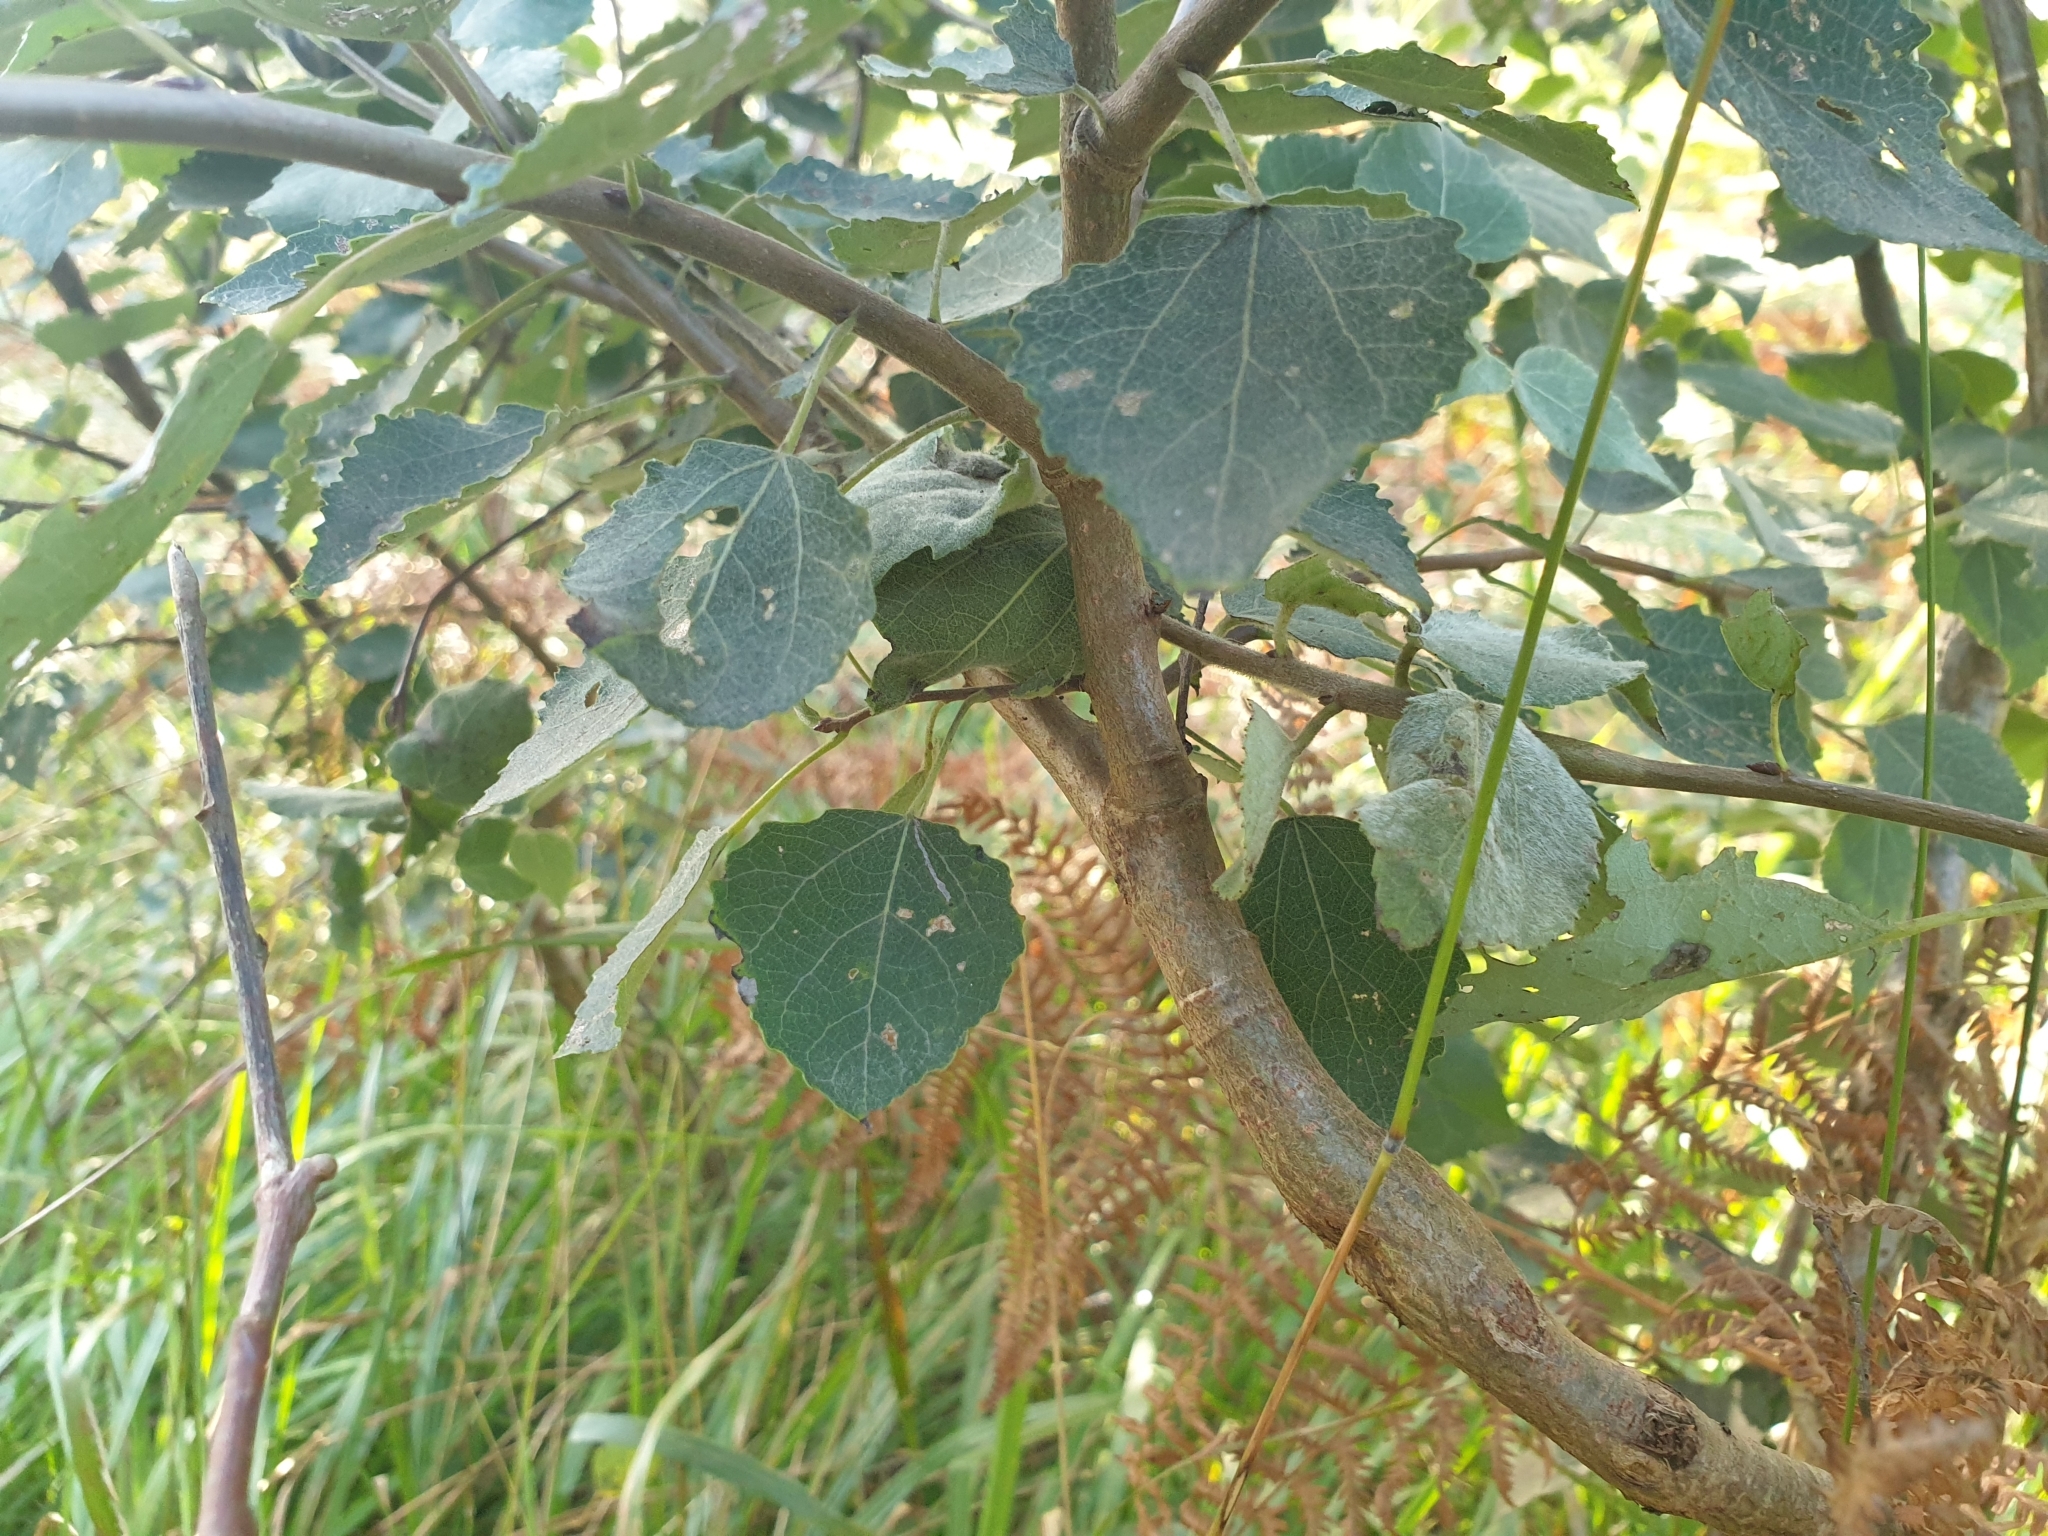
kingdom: Plantae
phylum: Tracheophyta
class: Magnoliopsida
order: Malpighiales
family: Salicaceae
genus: Populus
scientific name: Populus tremula
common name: European aspen
